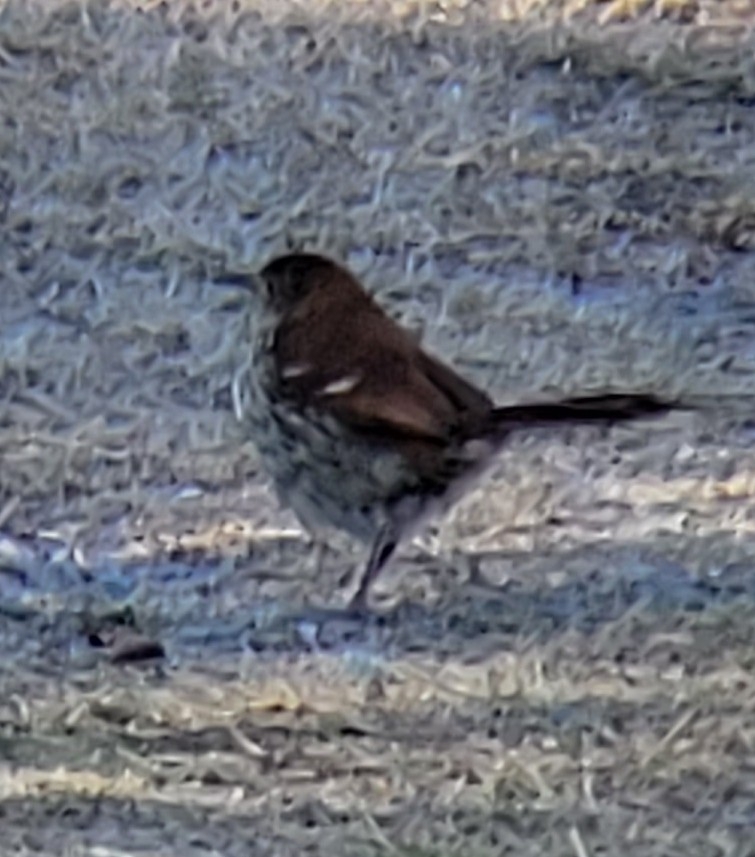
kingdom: Animalia
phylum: Chordata
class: Aves
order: Passeriformes
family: Mimidae
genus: Toxostoma
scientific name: Toxostoma rufum
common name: Brown thrasher
